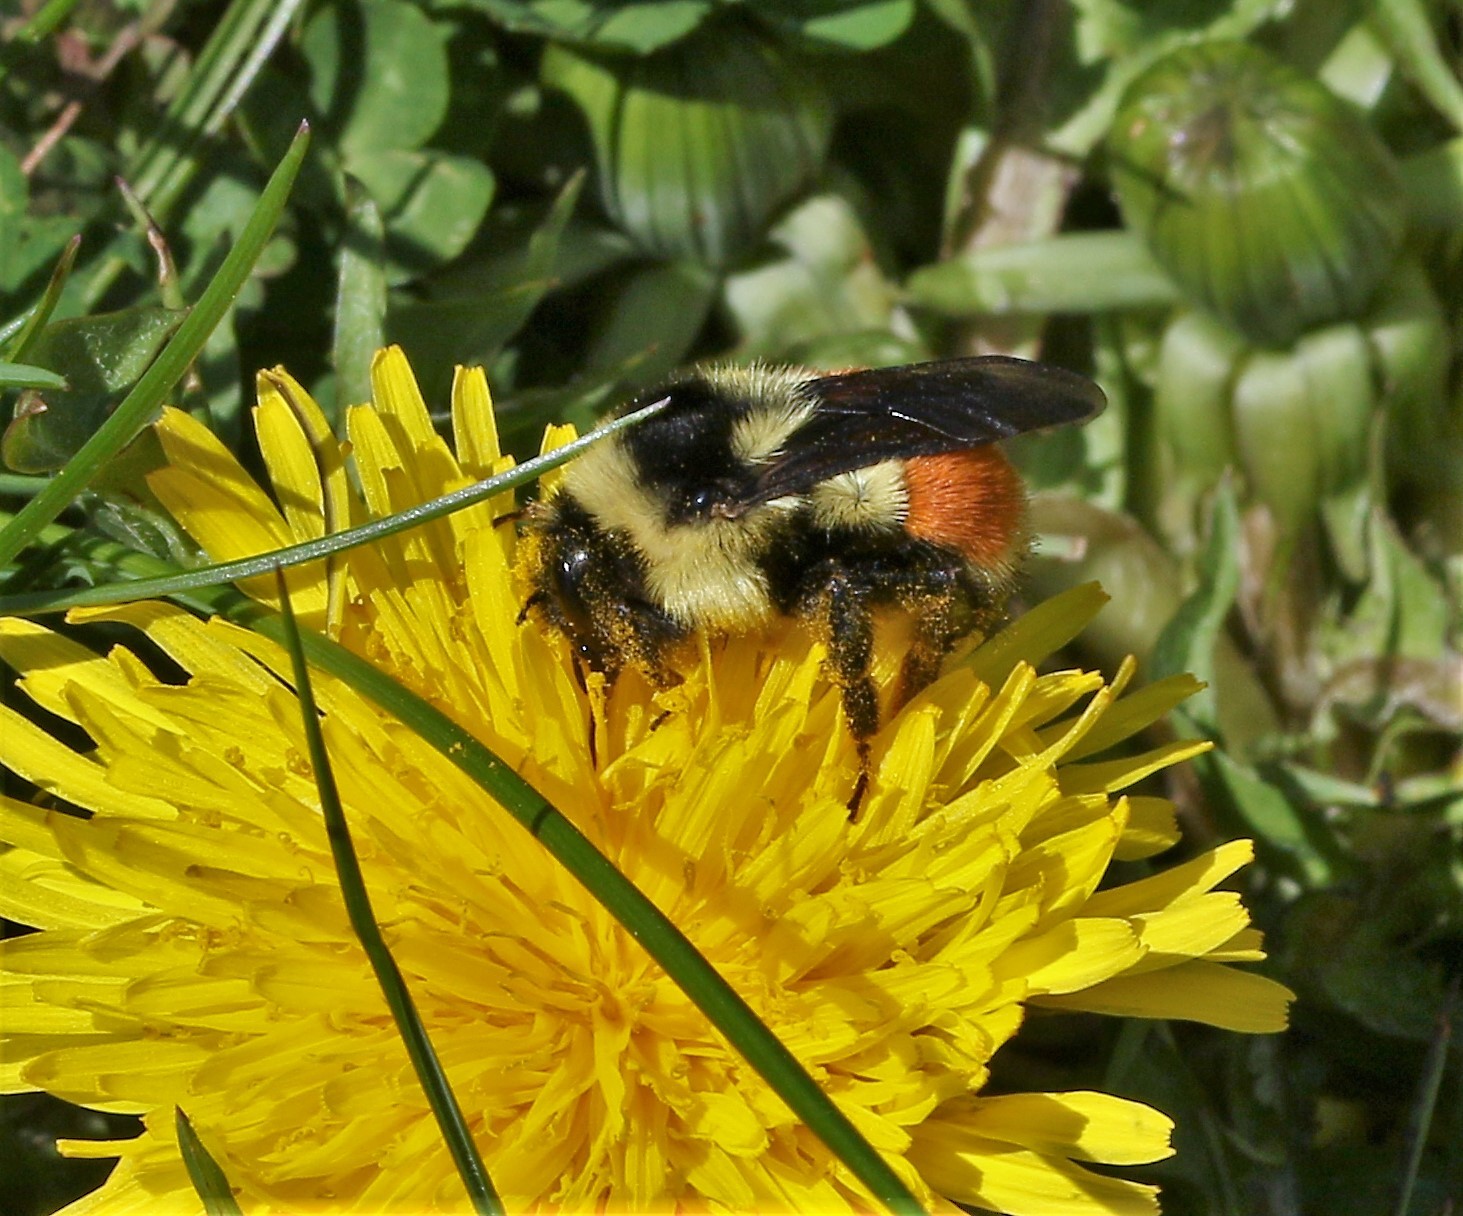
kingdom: Animalia
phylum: Arthropoda
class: Insecta
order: Hymenoptera
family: Apidae
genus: Bombus
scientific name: Bombus ternarius
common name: Tri-colored bumble bee
